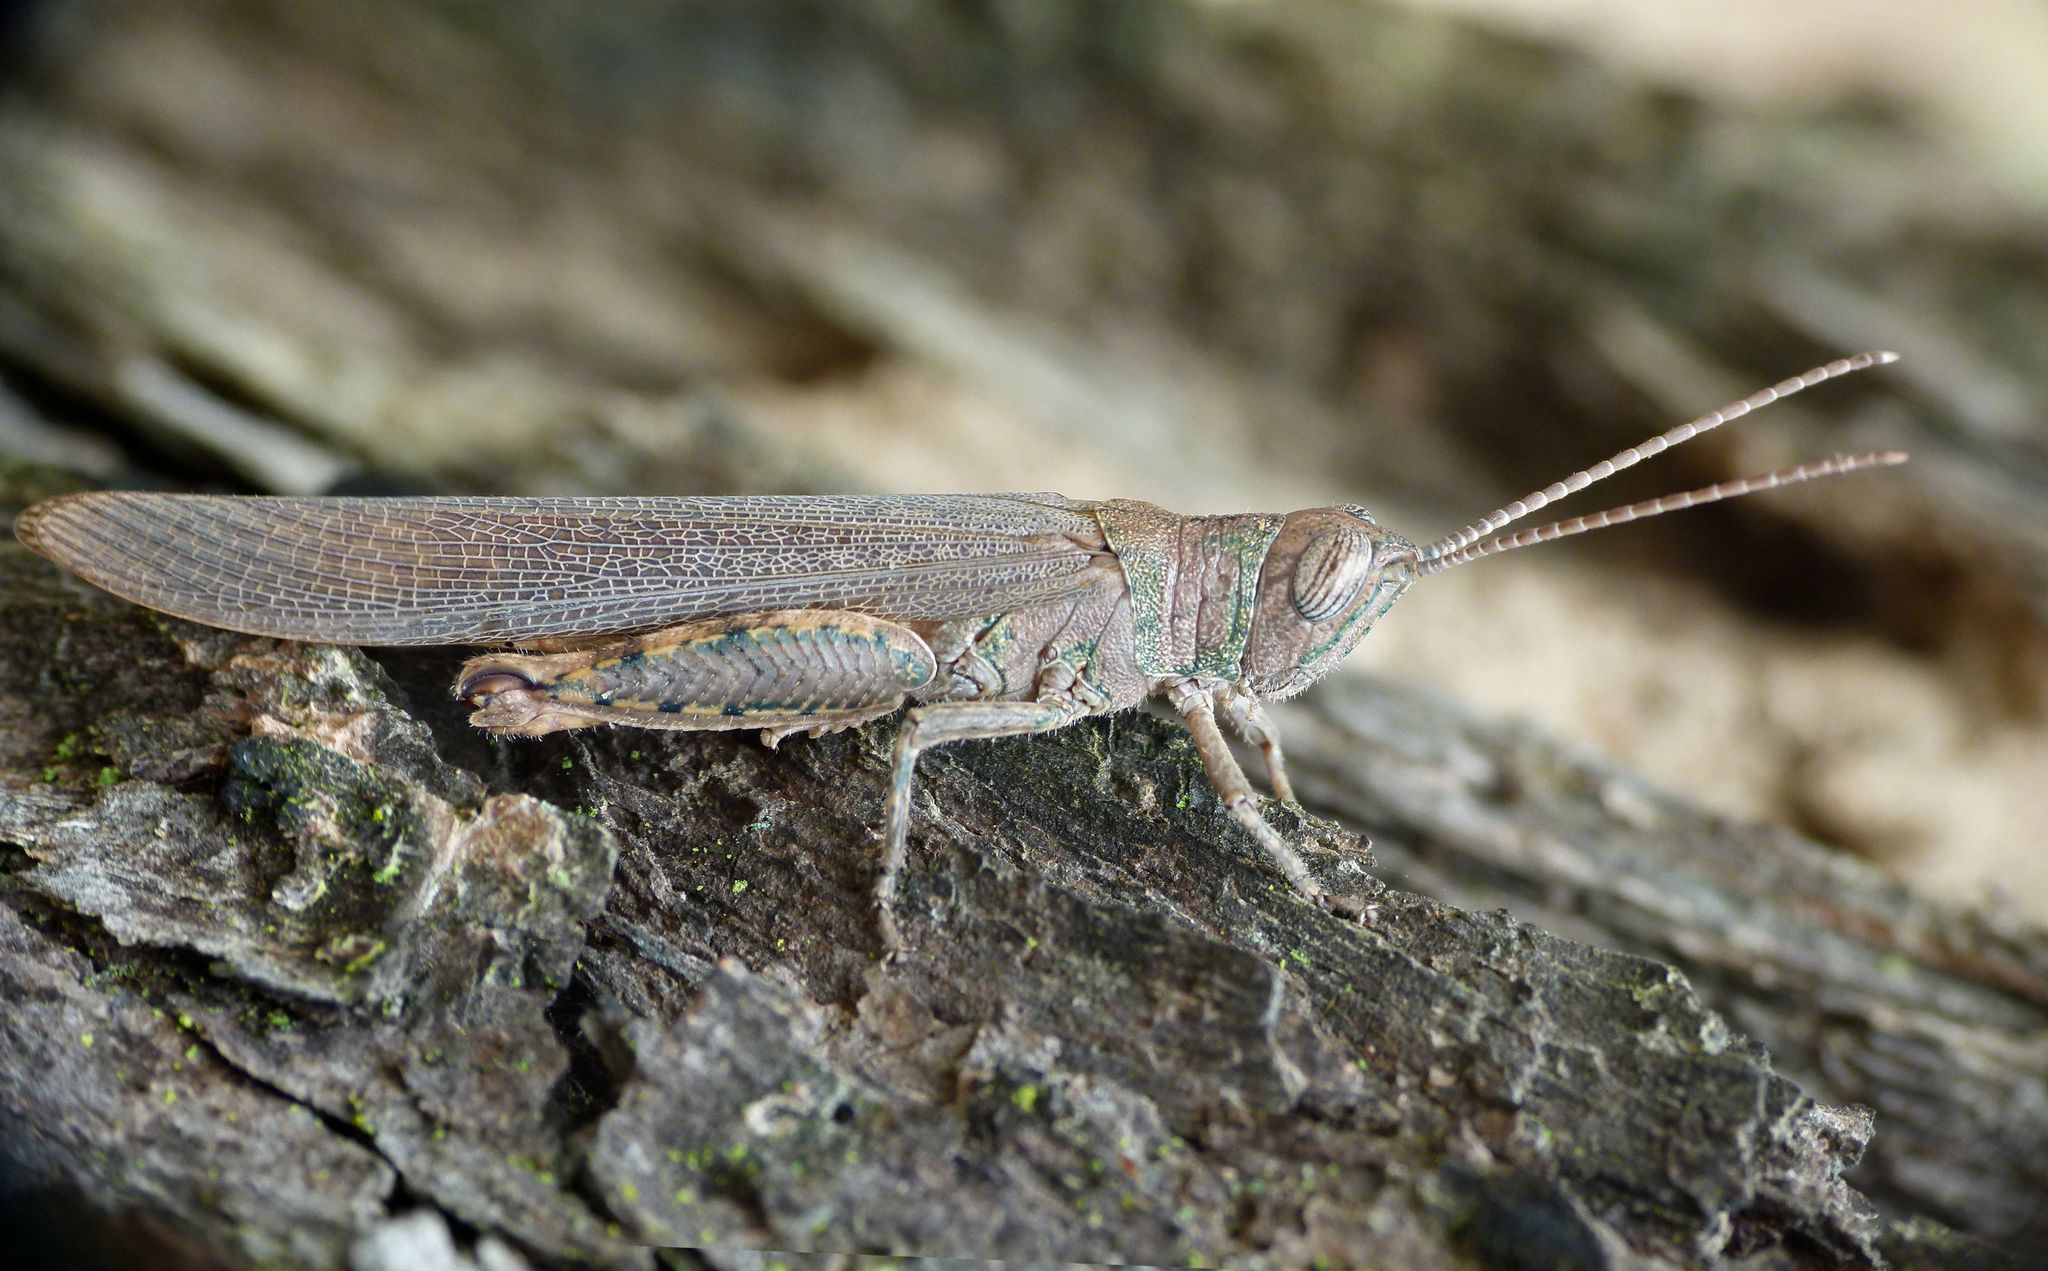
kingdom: Animalia
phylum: Arthropoda
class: Insecta
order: Orthoptera
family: Acrididae
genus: Pardillana
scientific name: Pardillana limbata
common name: Common pardillana
